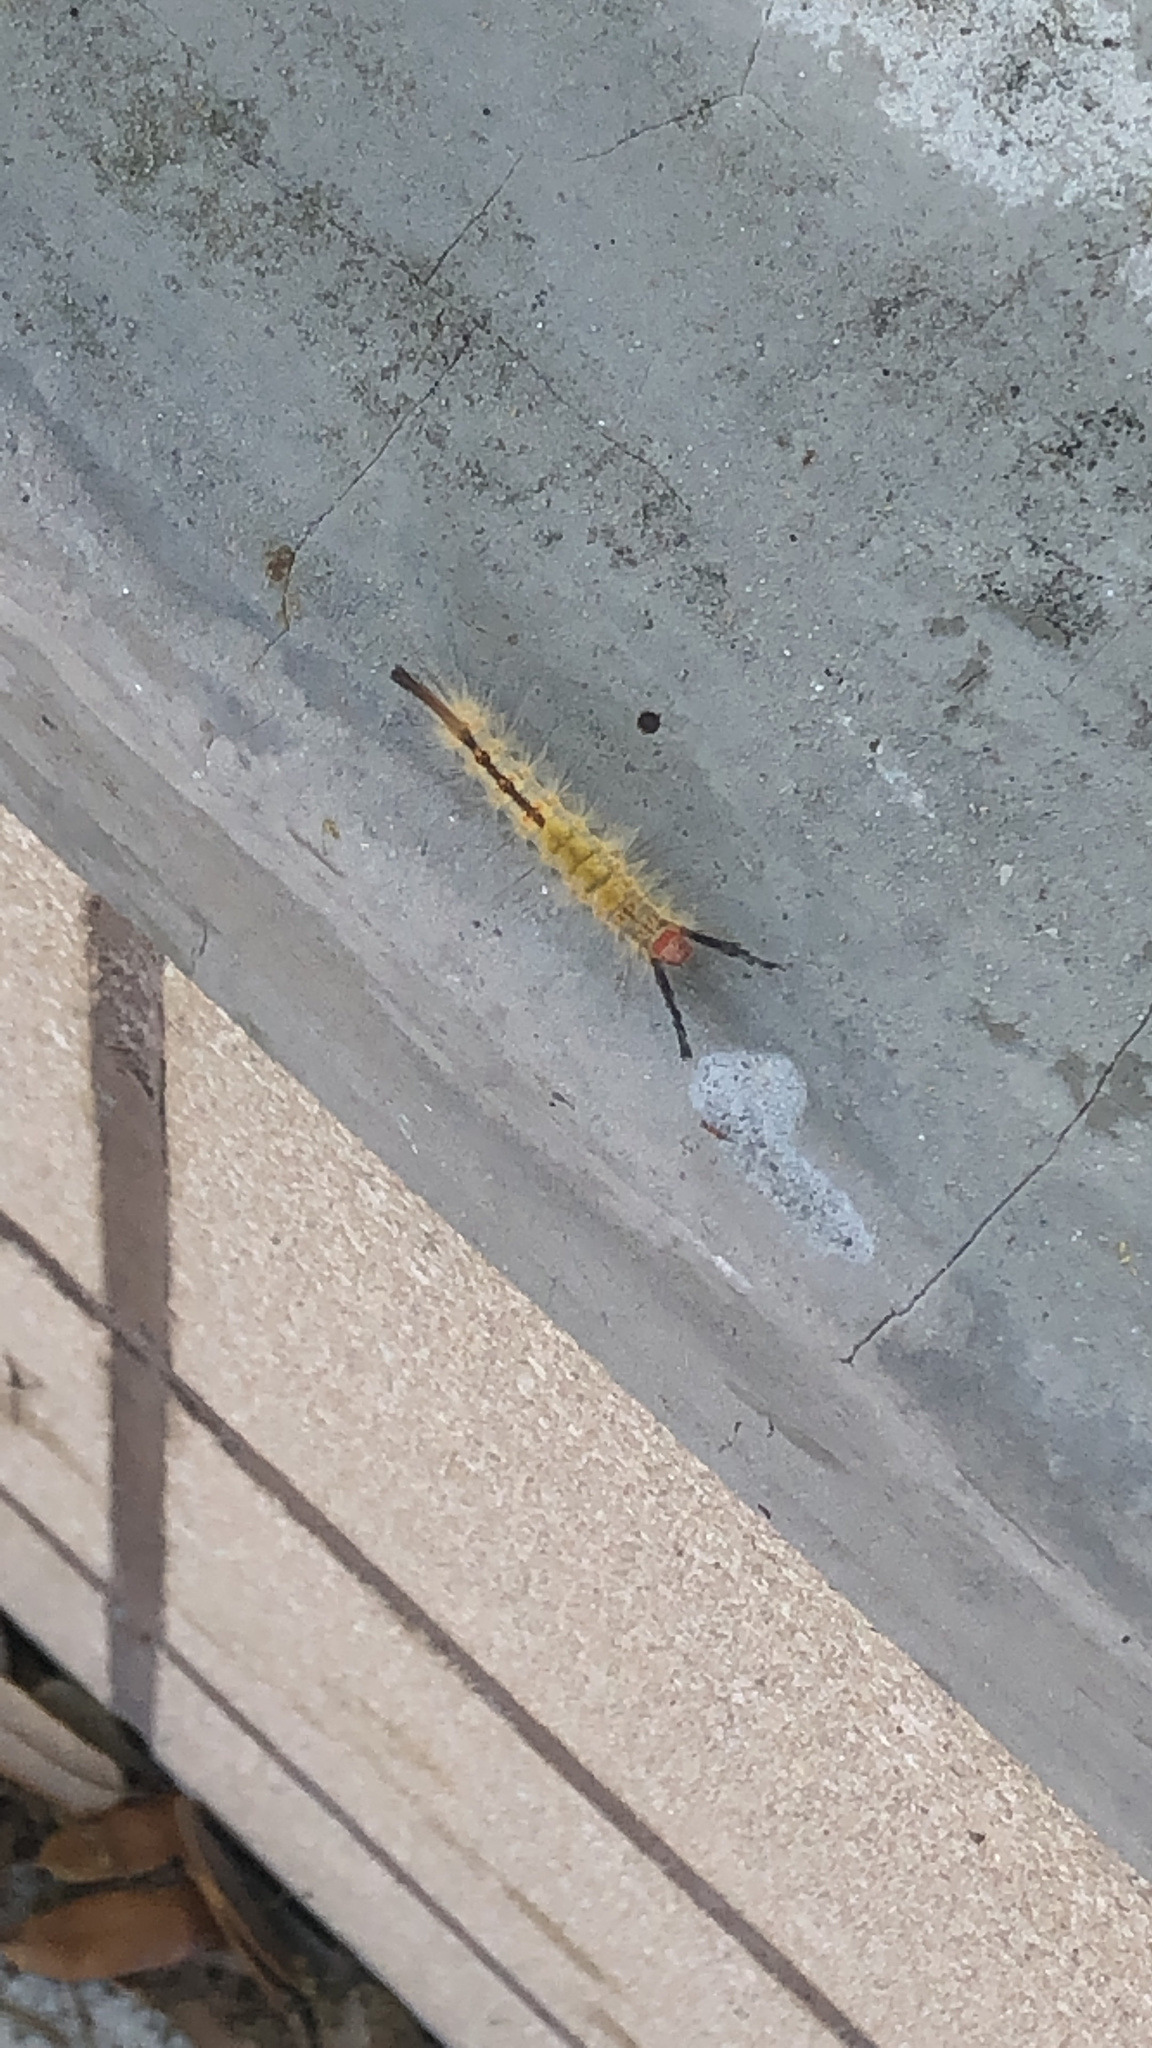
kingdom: Animalia
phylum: Arthropoda
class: Insecta
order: Lepidoptera
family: Erebidae
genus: Orgyia
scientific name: Orgyia detrita
